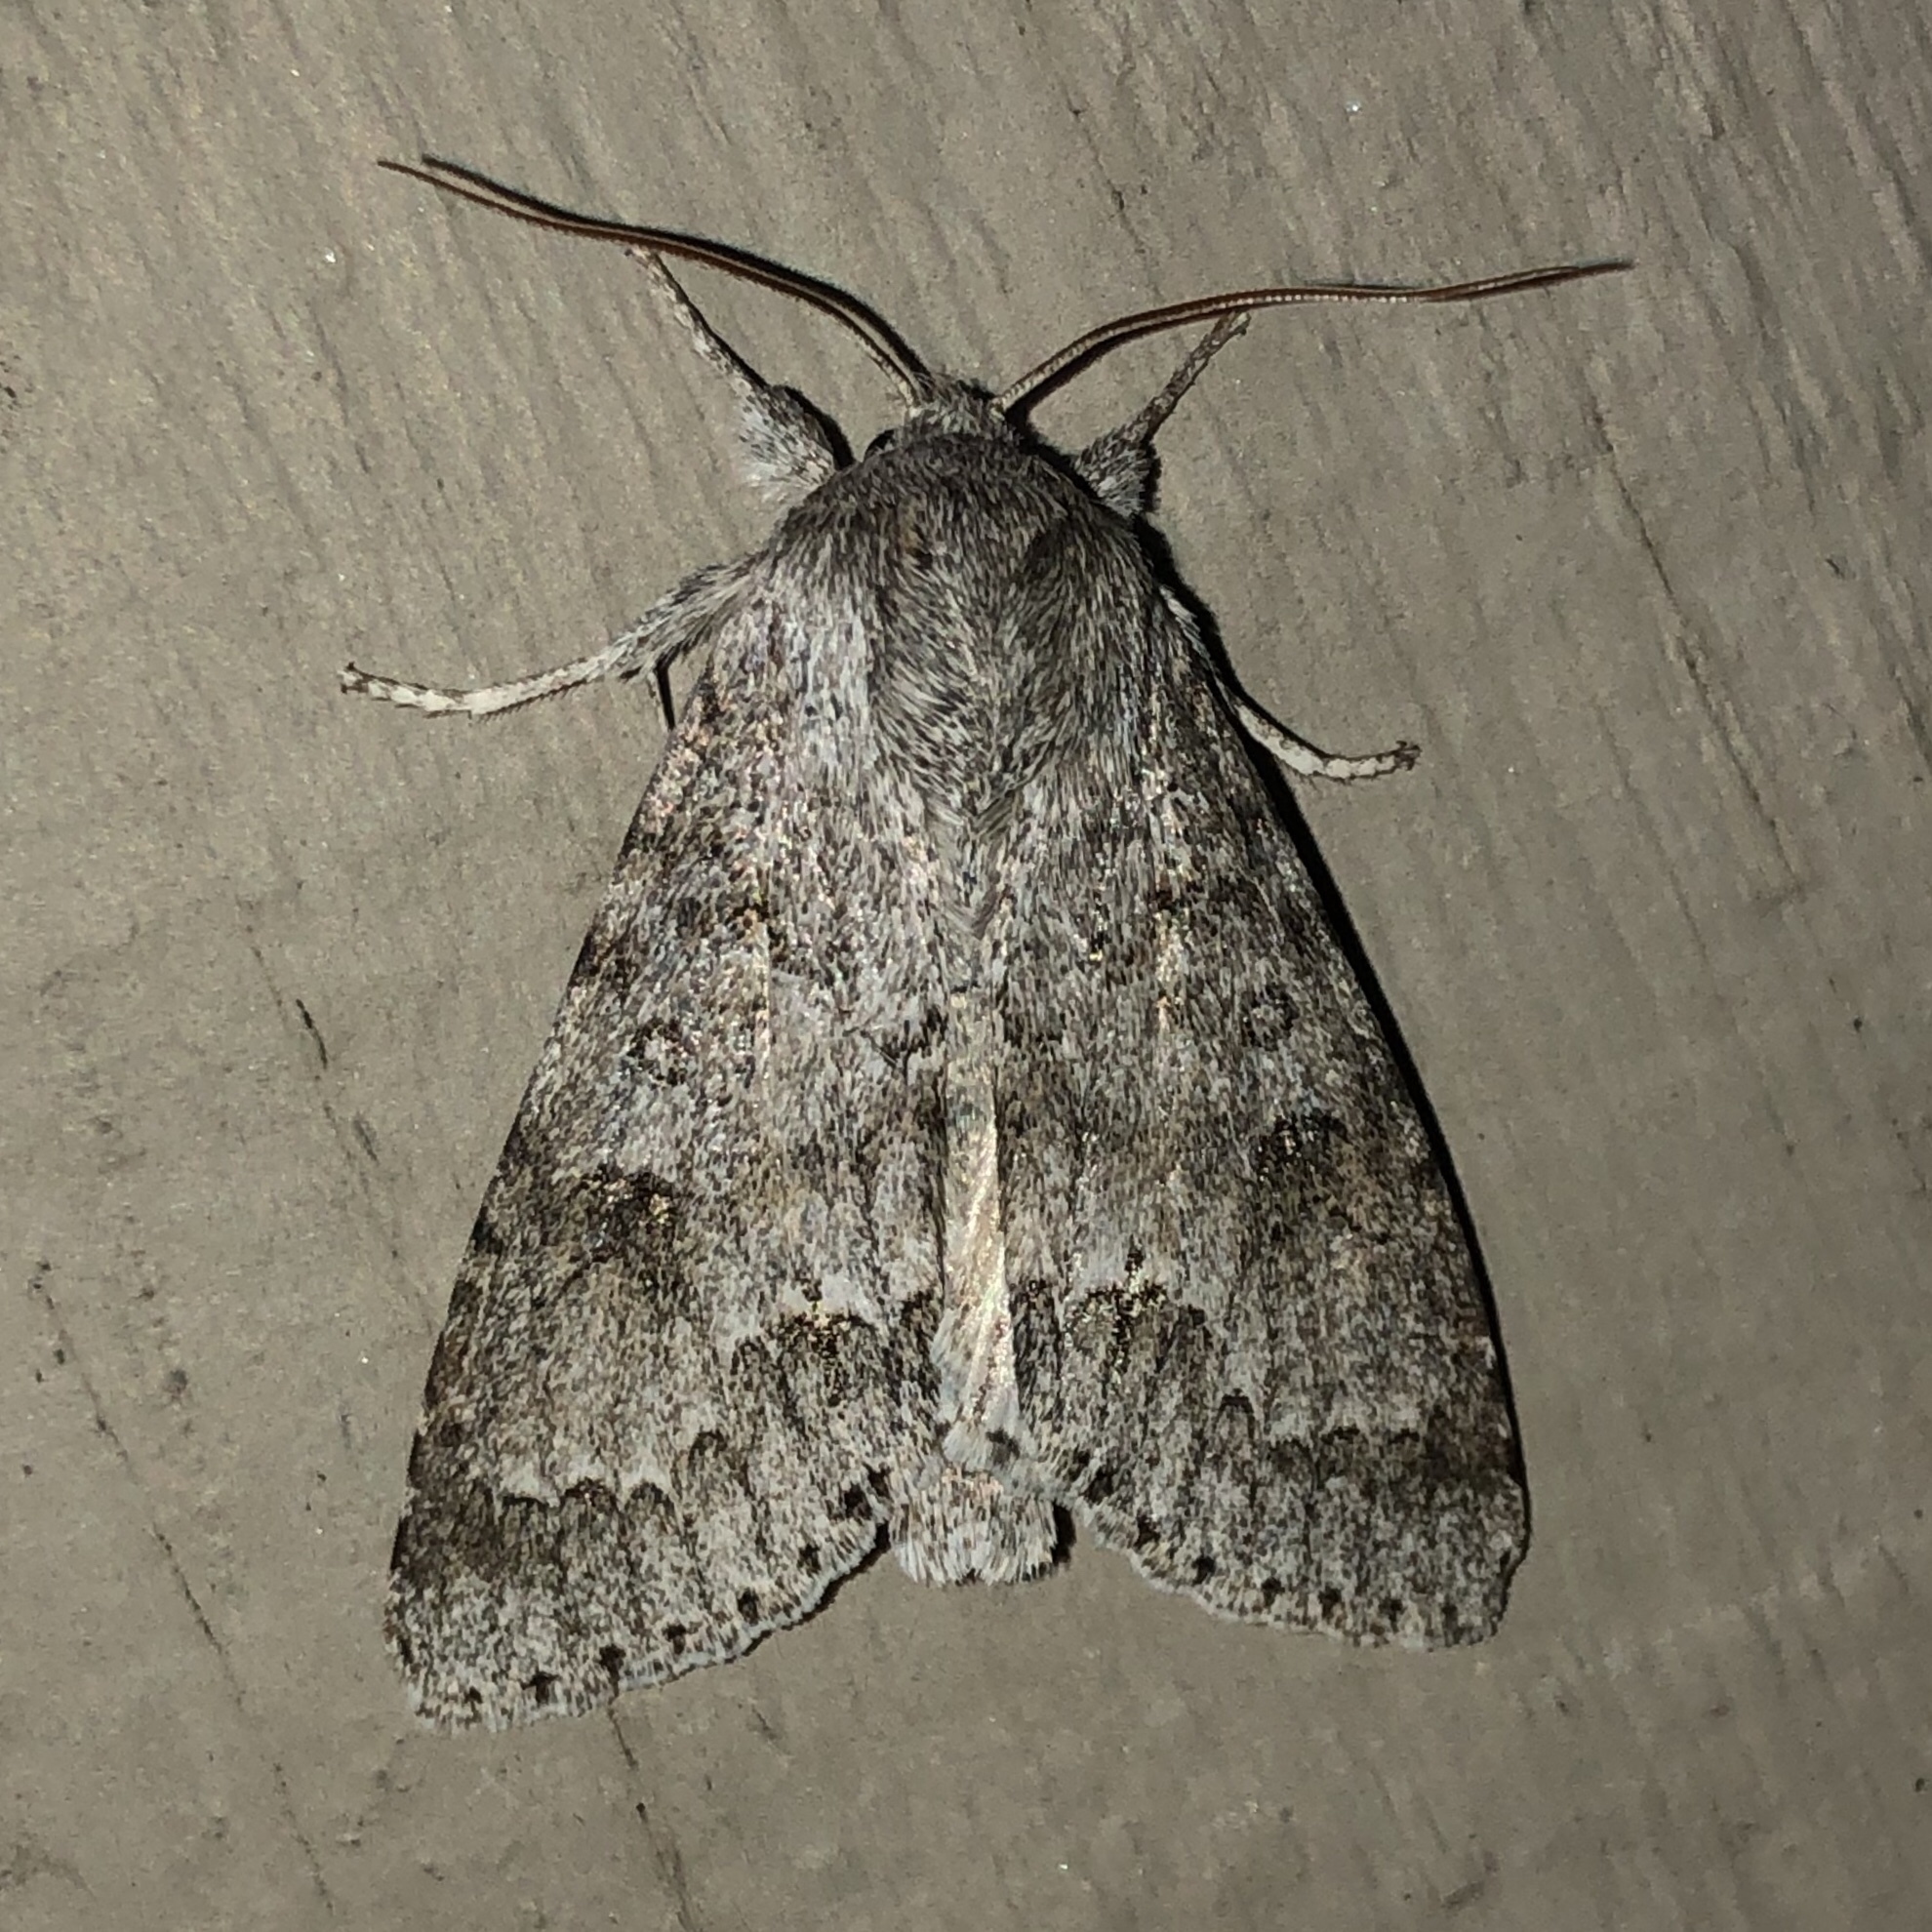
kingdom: Animalia
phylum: Arthropoda
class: Insecta
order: Lepidoptera
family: Noctuidae
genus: Acronicta
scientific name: Acronicta insita
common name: Large gray dagger
